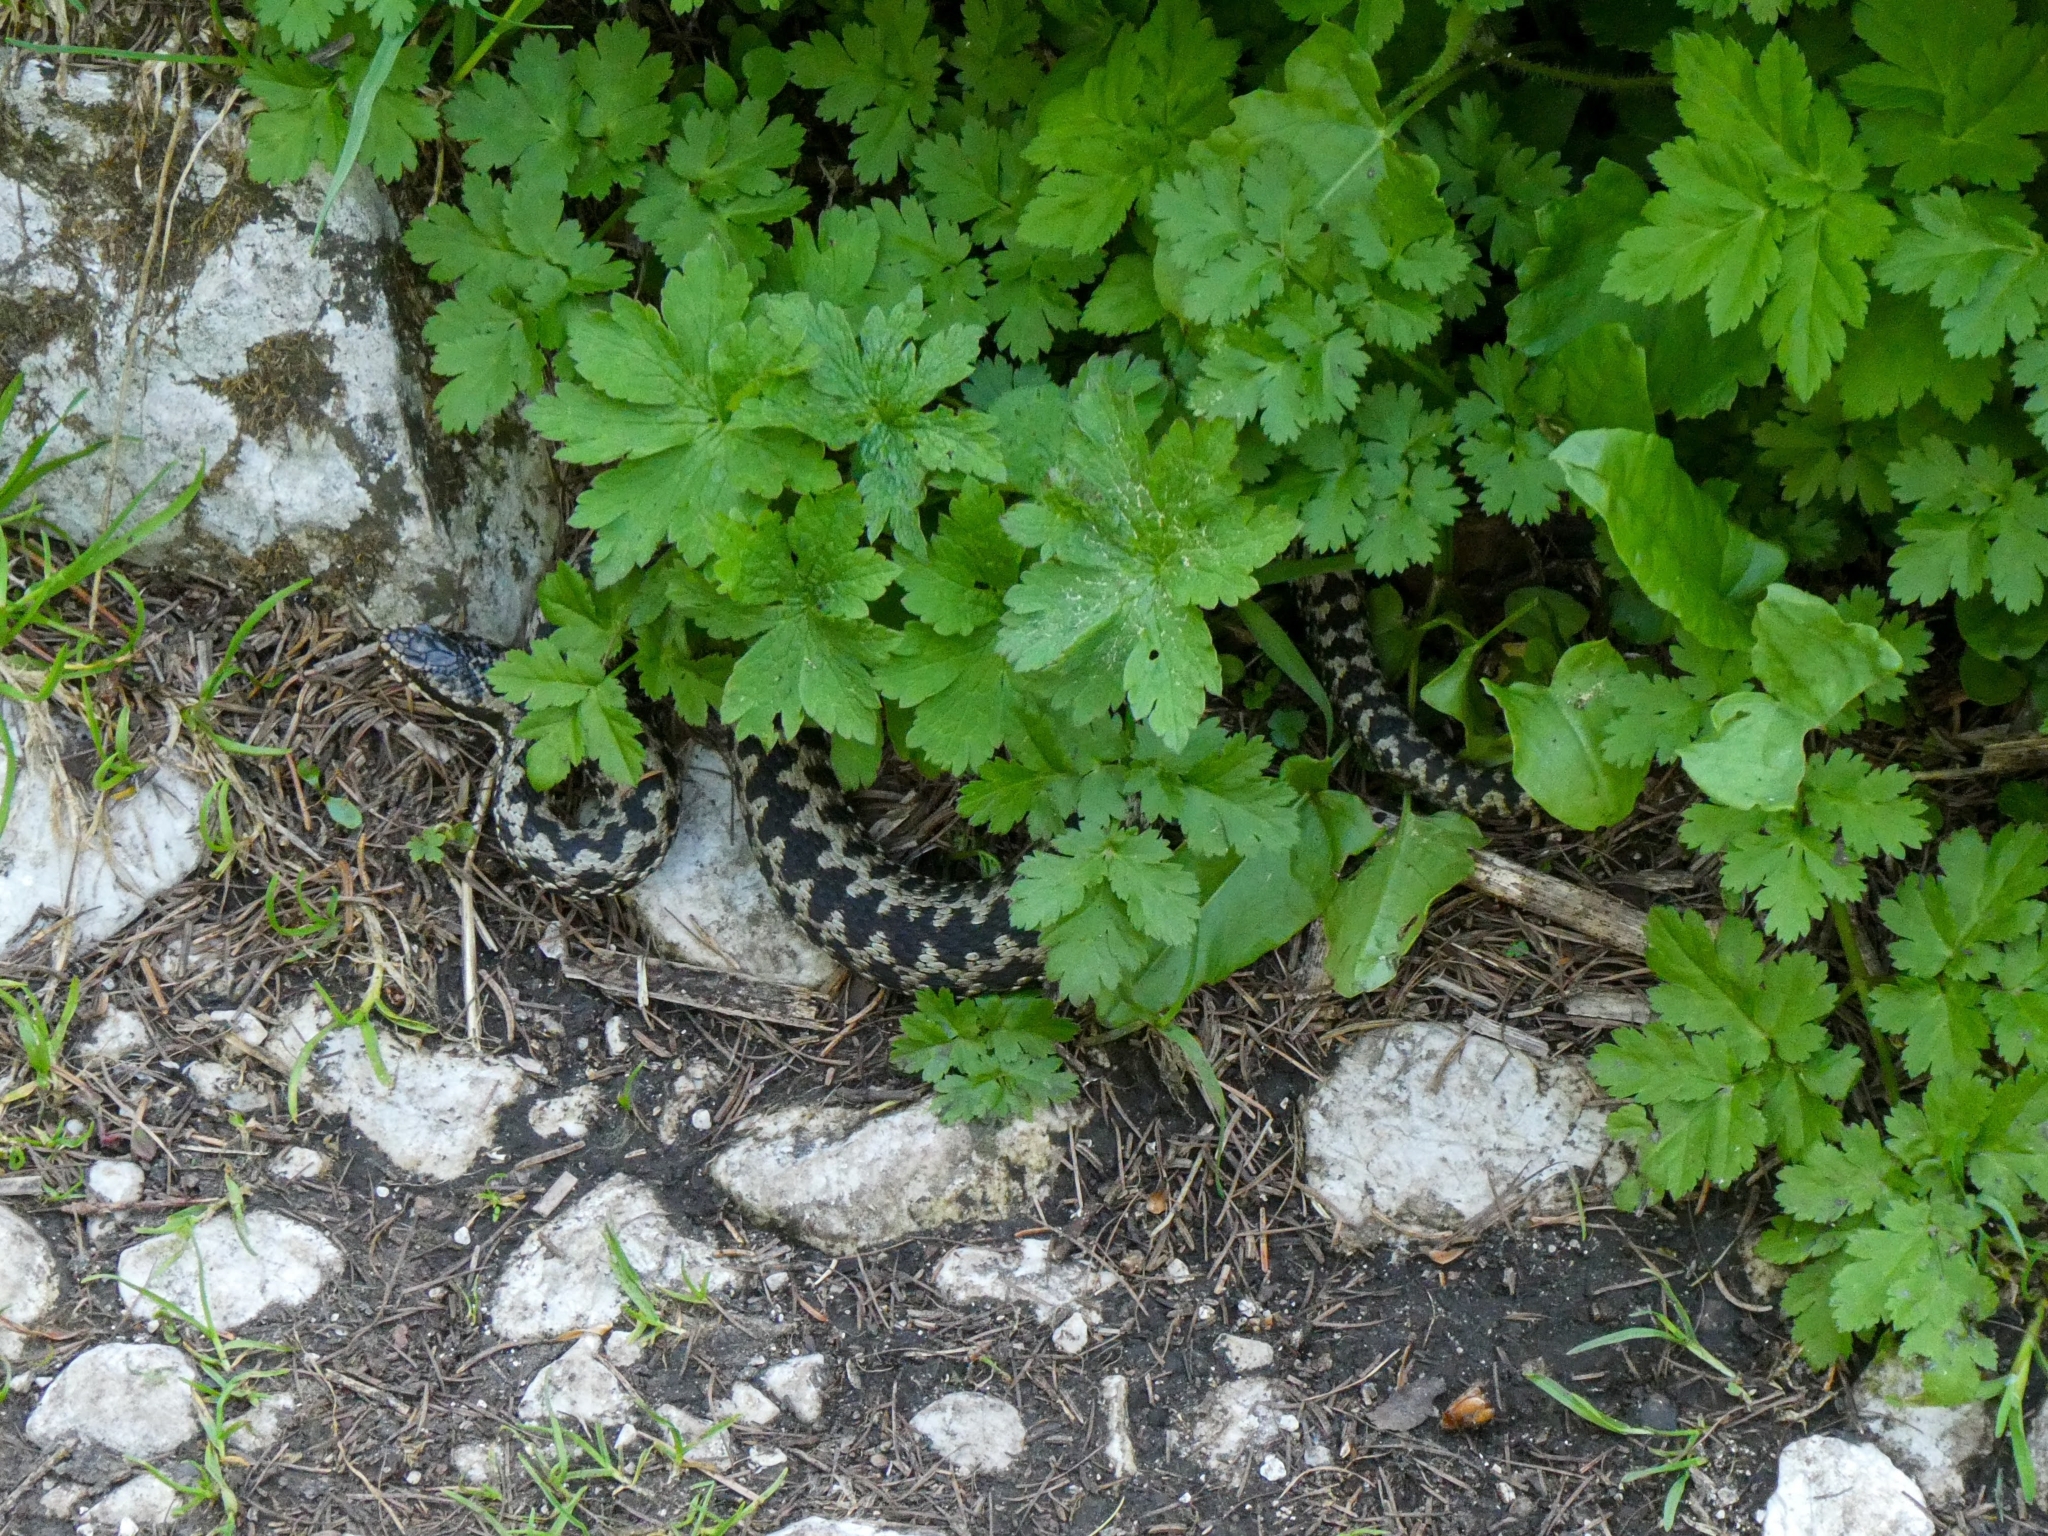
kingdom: Animalia
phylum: Chordata
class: Squamata
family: Viperidae
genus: Vipera
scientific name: Vipera berus
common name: Adder
